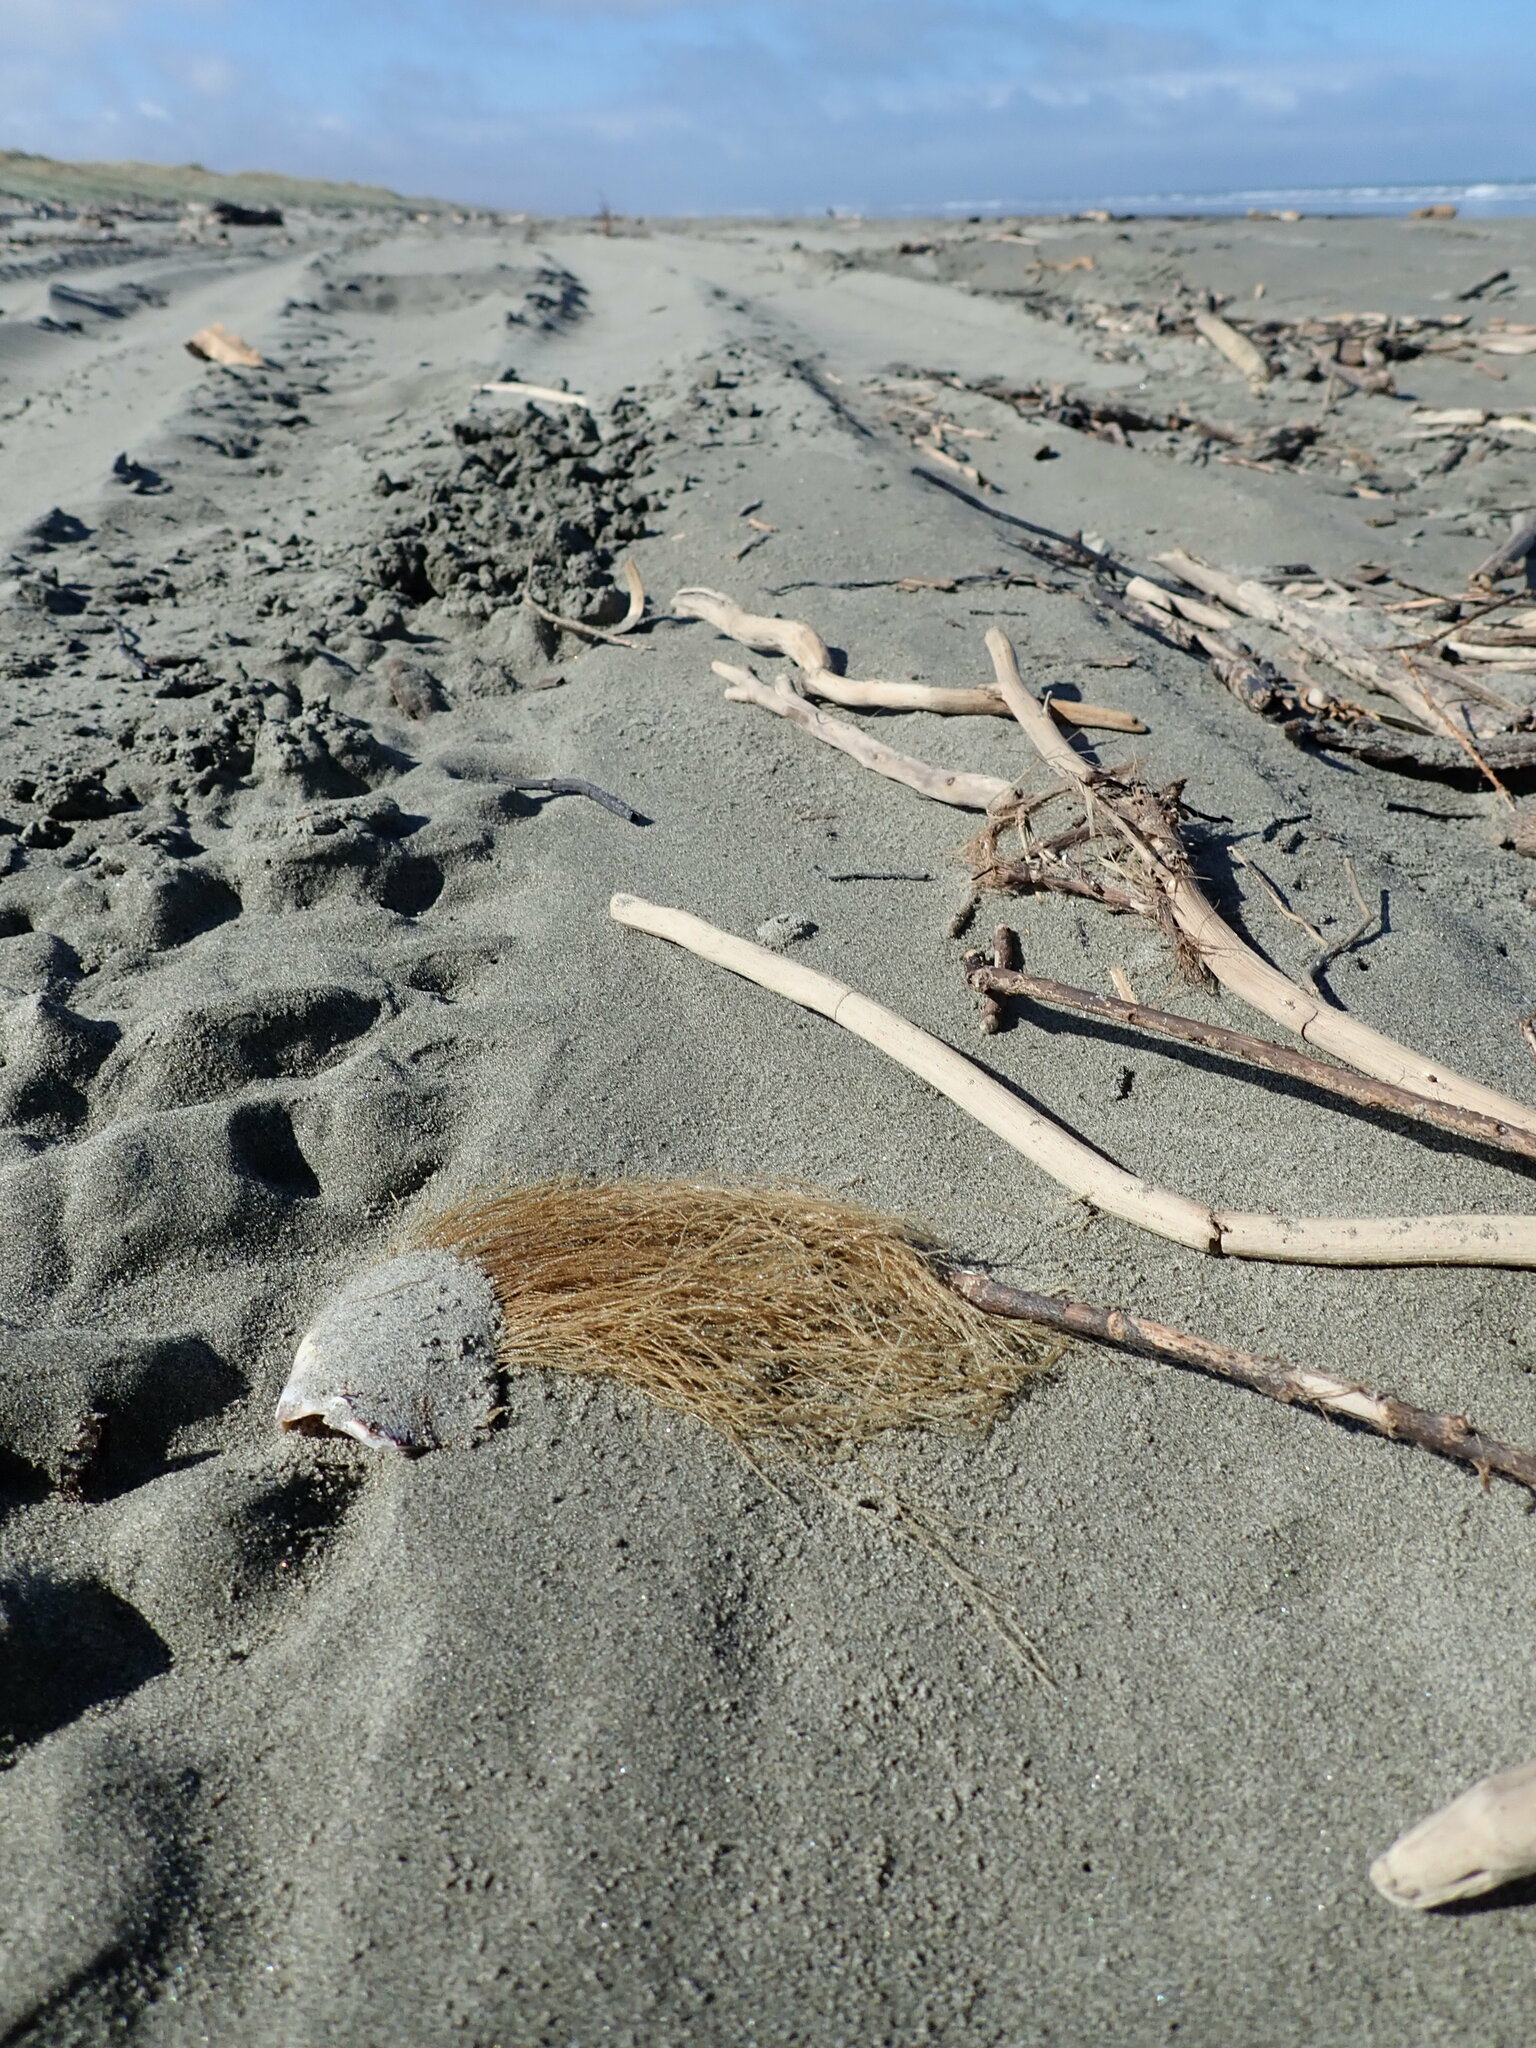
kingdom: Animalia
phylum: Cnidaria
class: Hydrozoa
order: Leptothecata
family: Sertulariidae
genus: Amphisbetia
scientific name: Amphisbetia bispinosa
